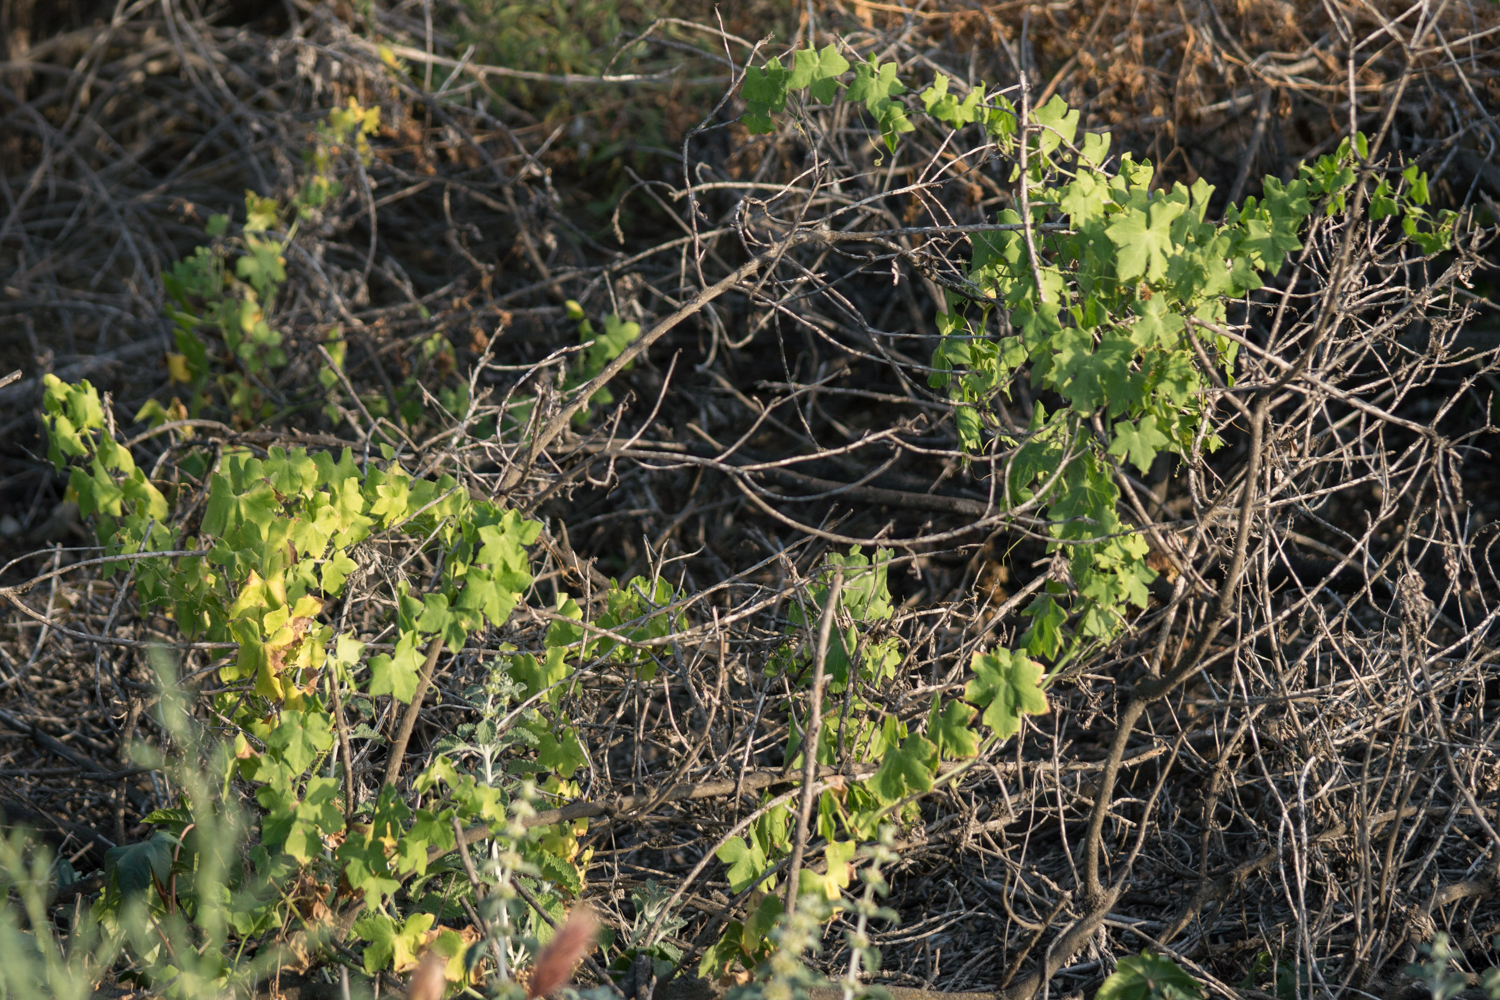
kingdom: Plantae
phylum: Tracheophyta
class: Magnoliopsida
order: Cucurbitales
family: Cucurbitaceae
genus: Marah
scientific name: Marah macrocarpa
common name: Cucamonga manroot
